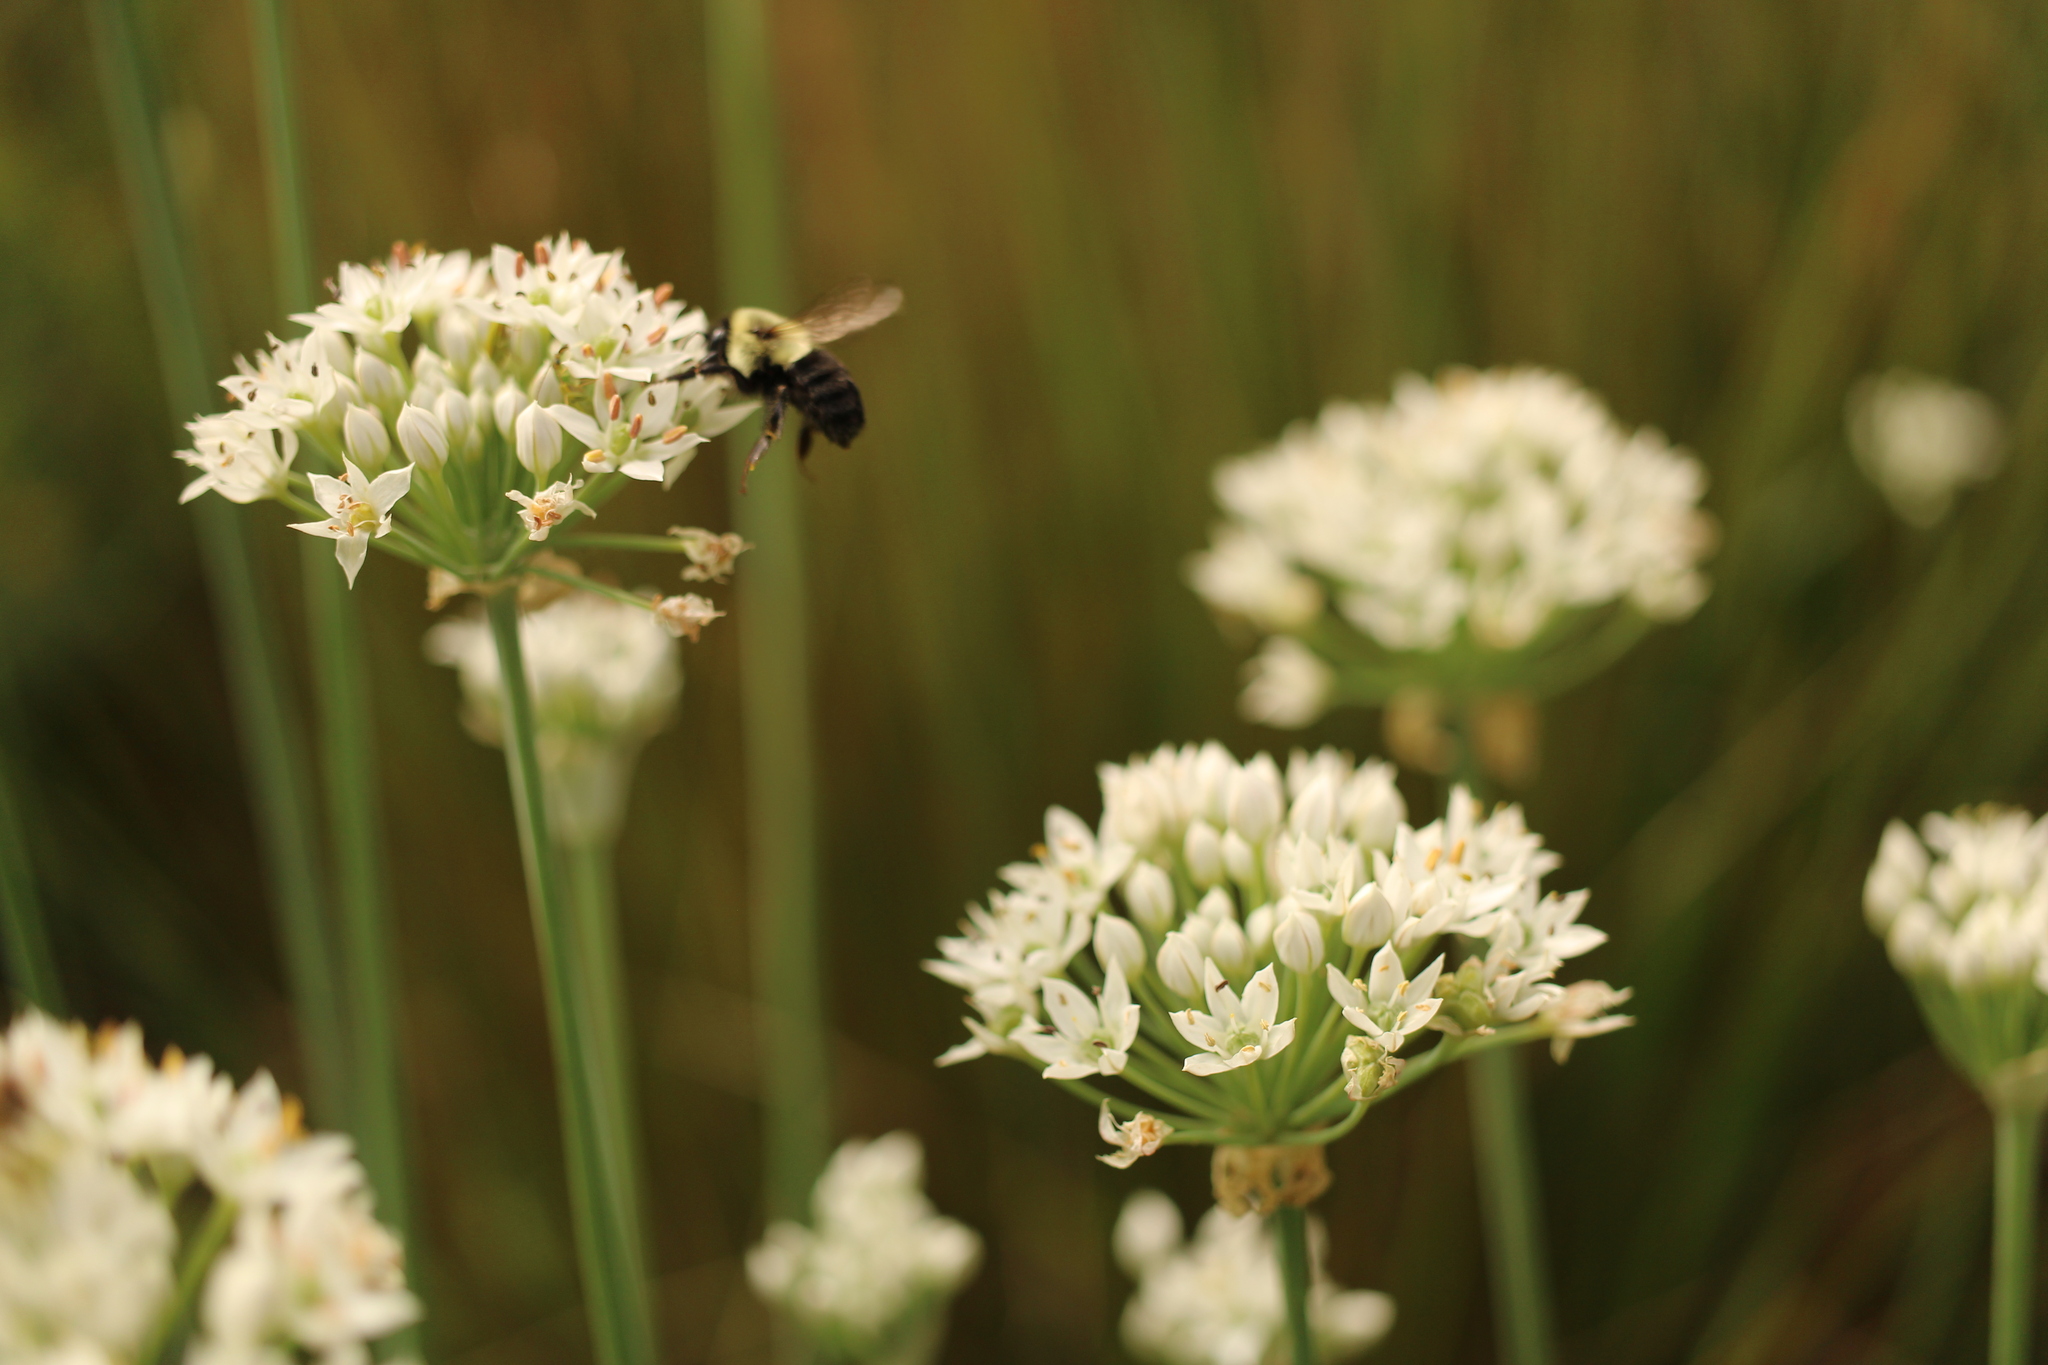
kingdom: Animalia
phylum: Arthropoda
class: Insecta
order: Hymenoptera
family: Apidae
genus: Bombus
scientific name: Bombus impatiens
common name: Common eastern bumble bee
